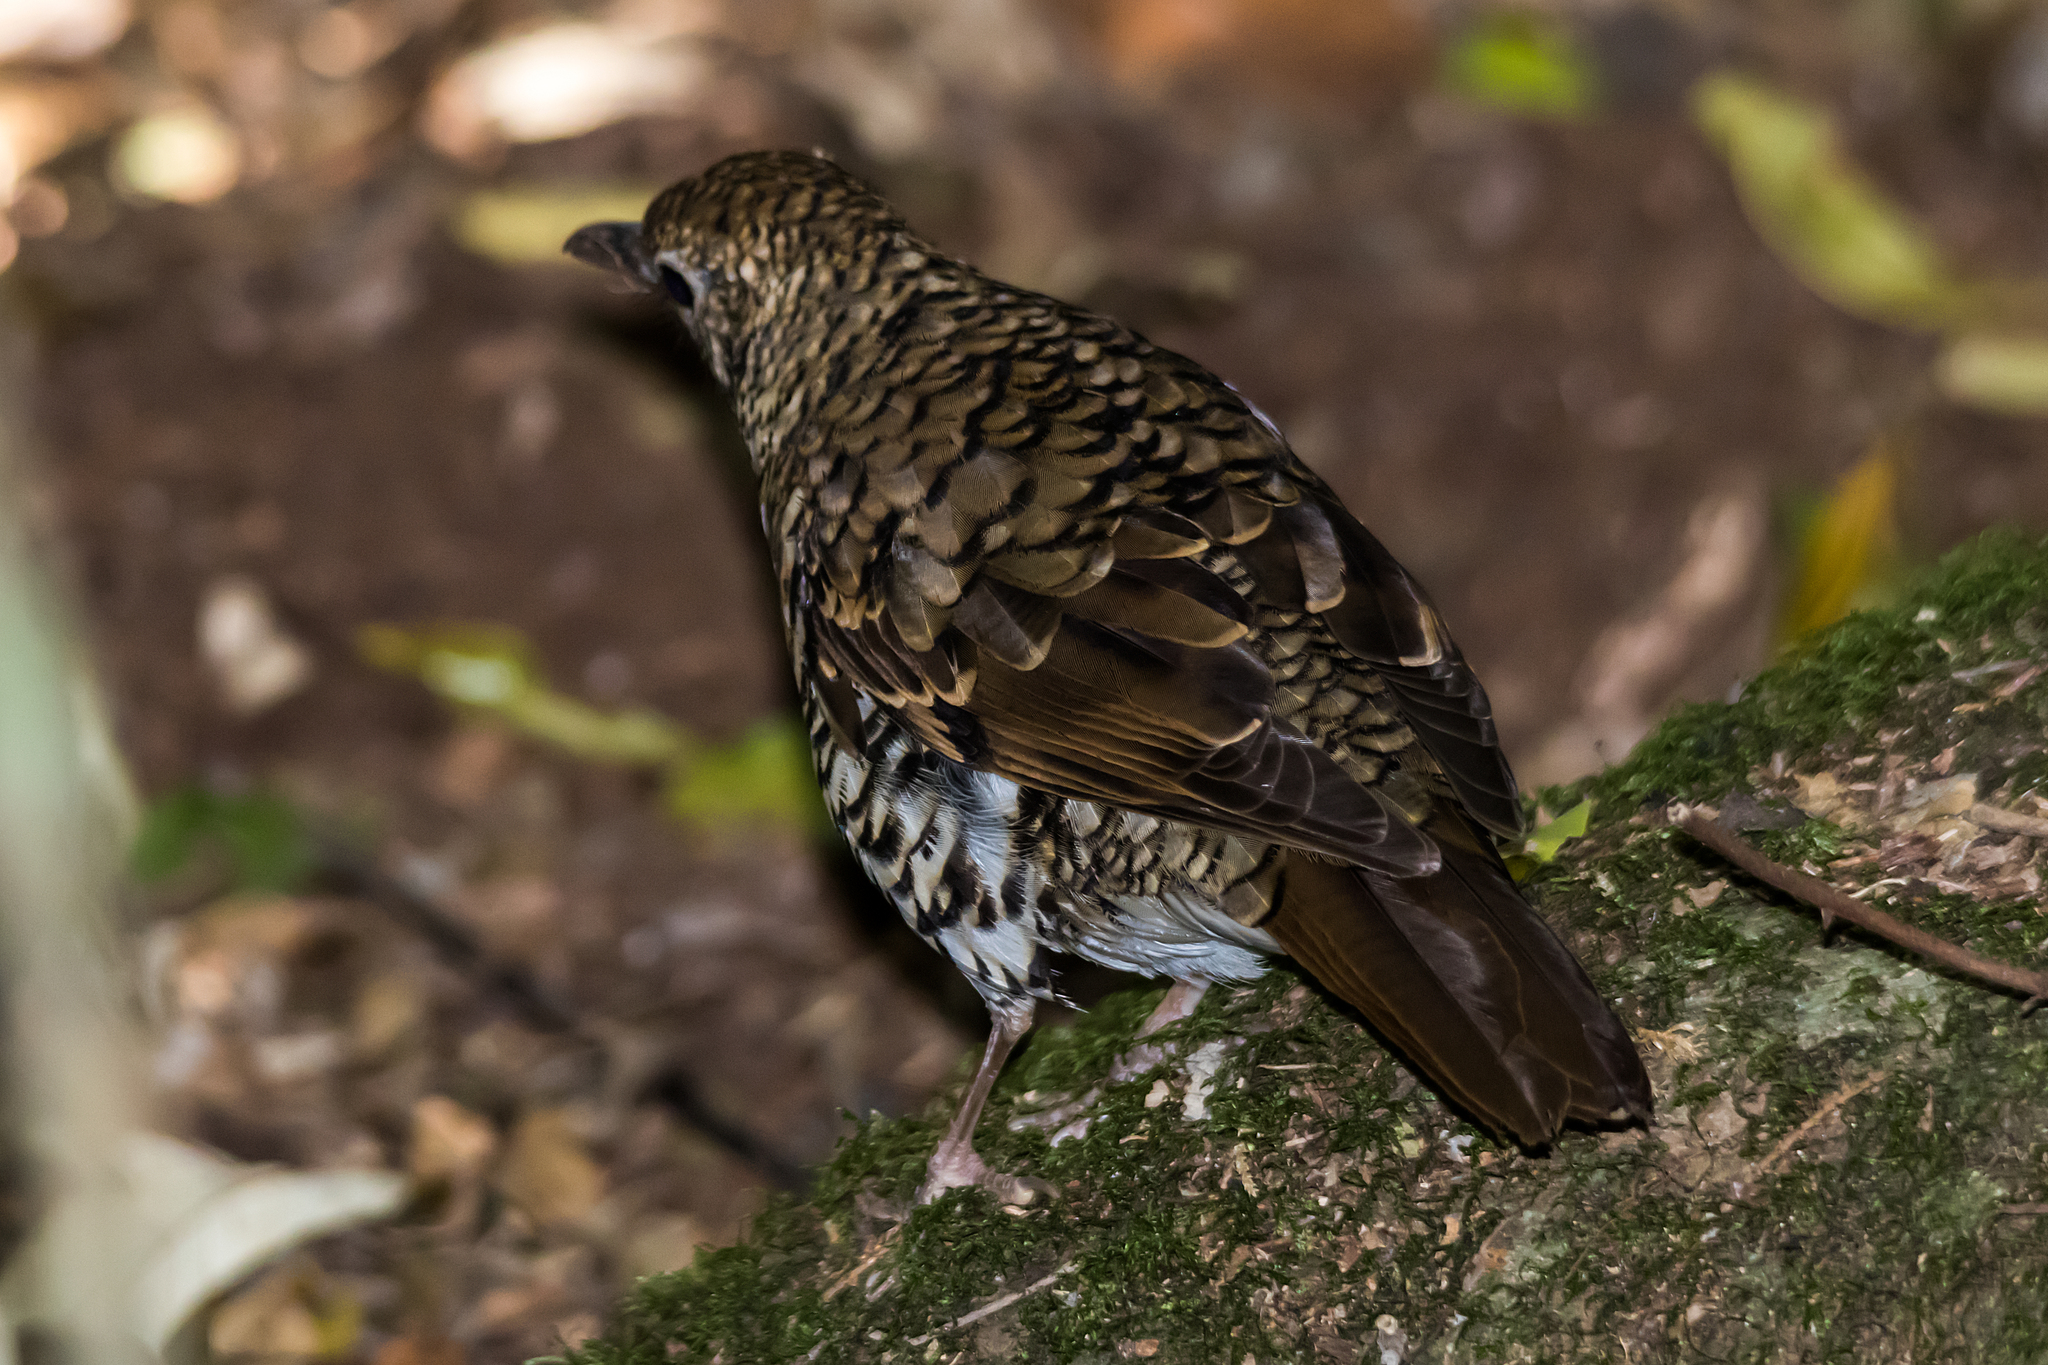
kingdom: Animalia
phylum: Chordata
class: Aves
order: Passeriformes
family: Turdidae
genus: Zoothera
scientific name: Zoothera lunulata
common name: Bassian thrush
